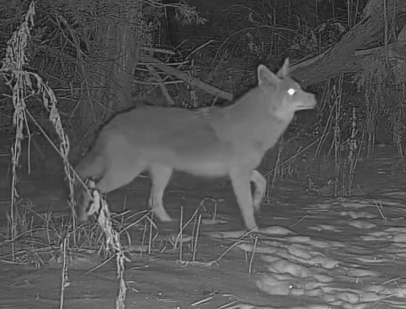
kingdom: Animalia
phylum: Chordata
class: Mammalia
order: Carnivora
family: Canidae
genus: Canis
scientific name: Canis latrans
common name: Coyote
